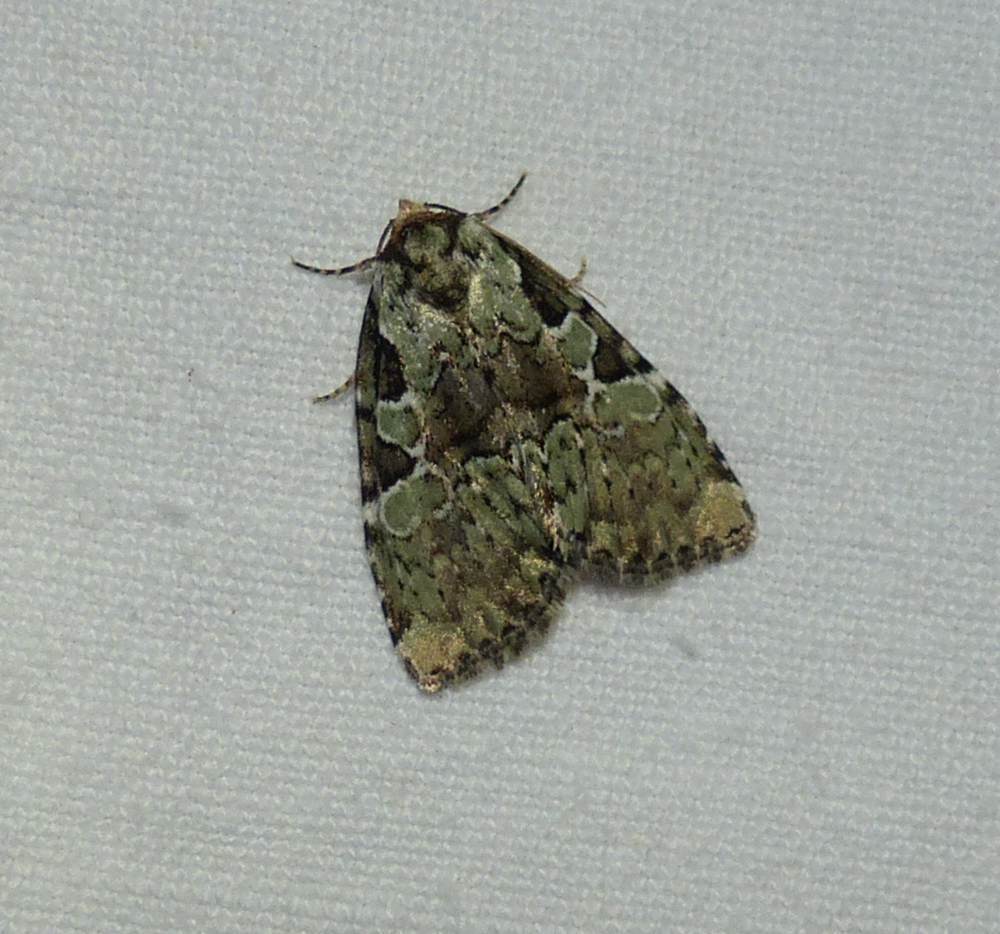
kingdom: Animalia
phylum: Arthropoda
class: Insecta
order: Lepidoptera
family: Noctuidae
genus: Leuconycta
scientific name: Leuconycta lepidula
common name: Marbled-green leuconycta moth
